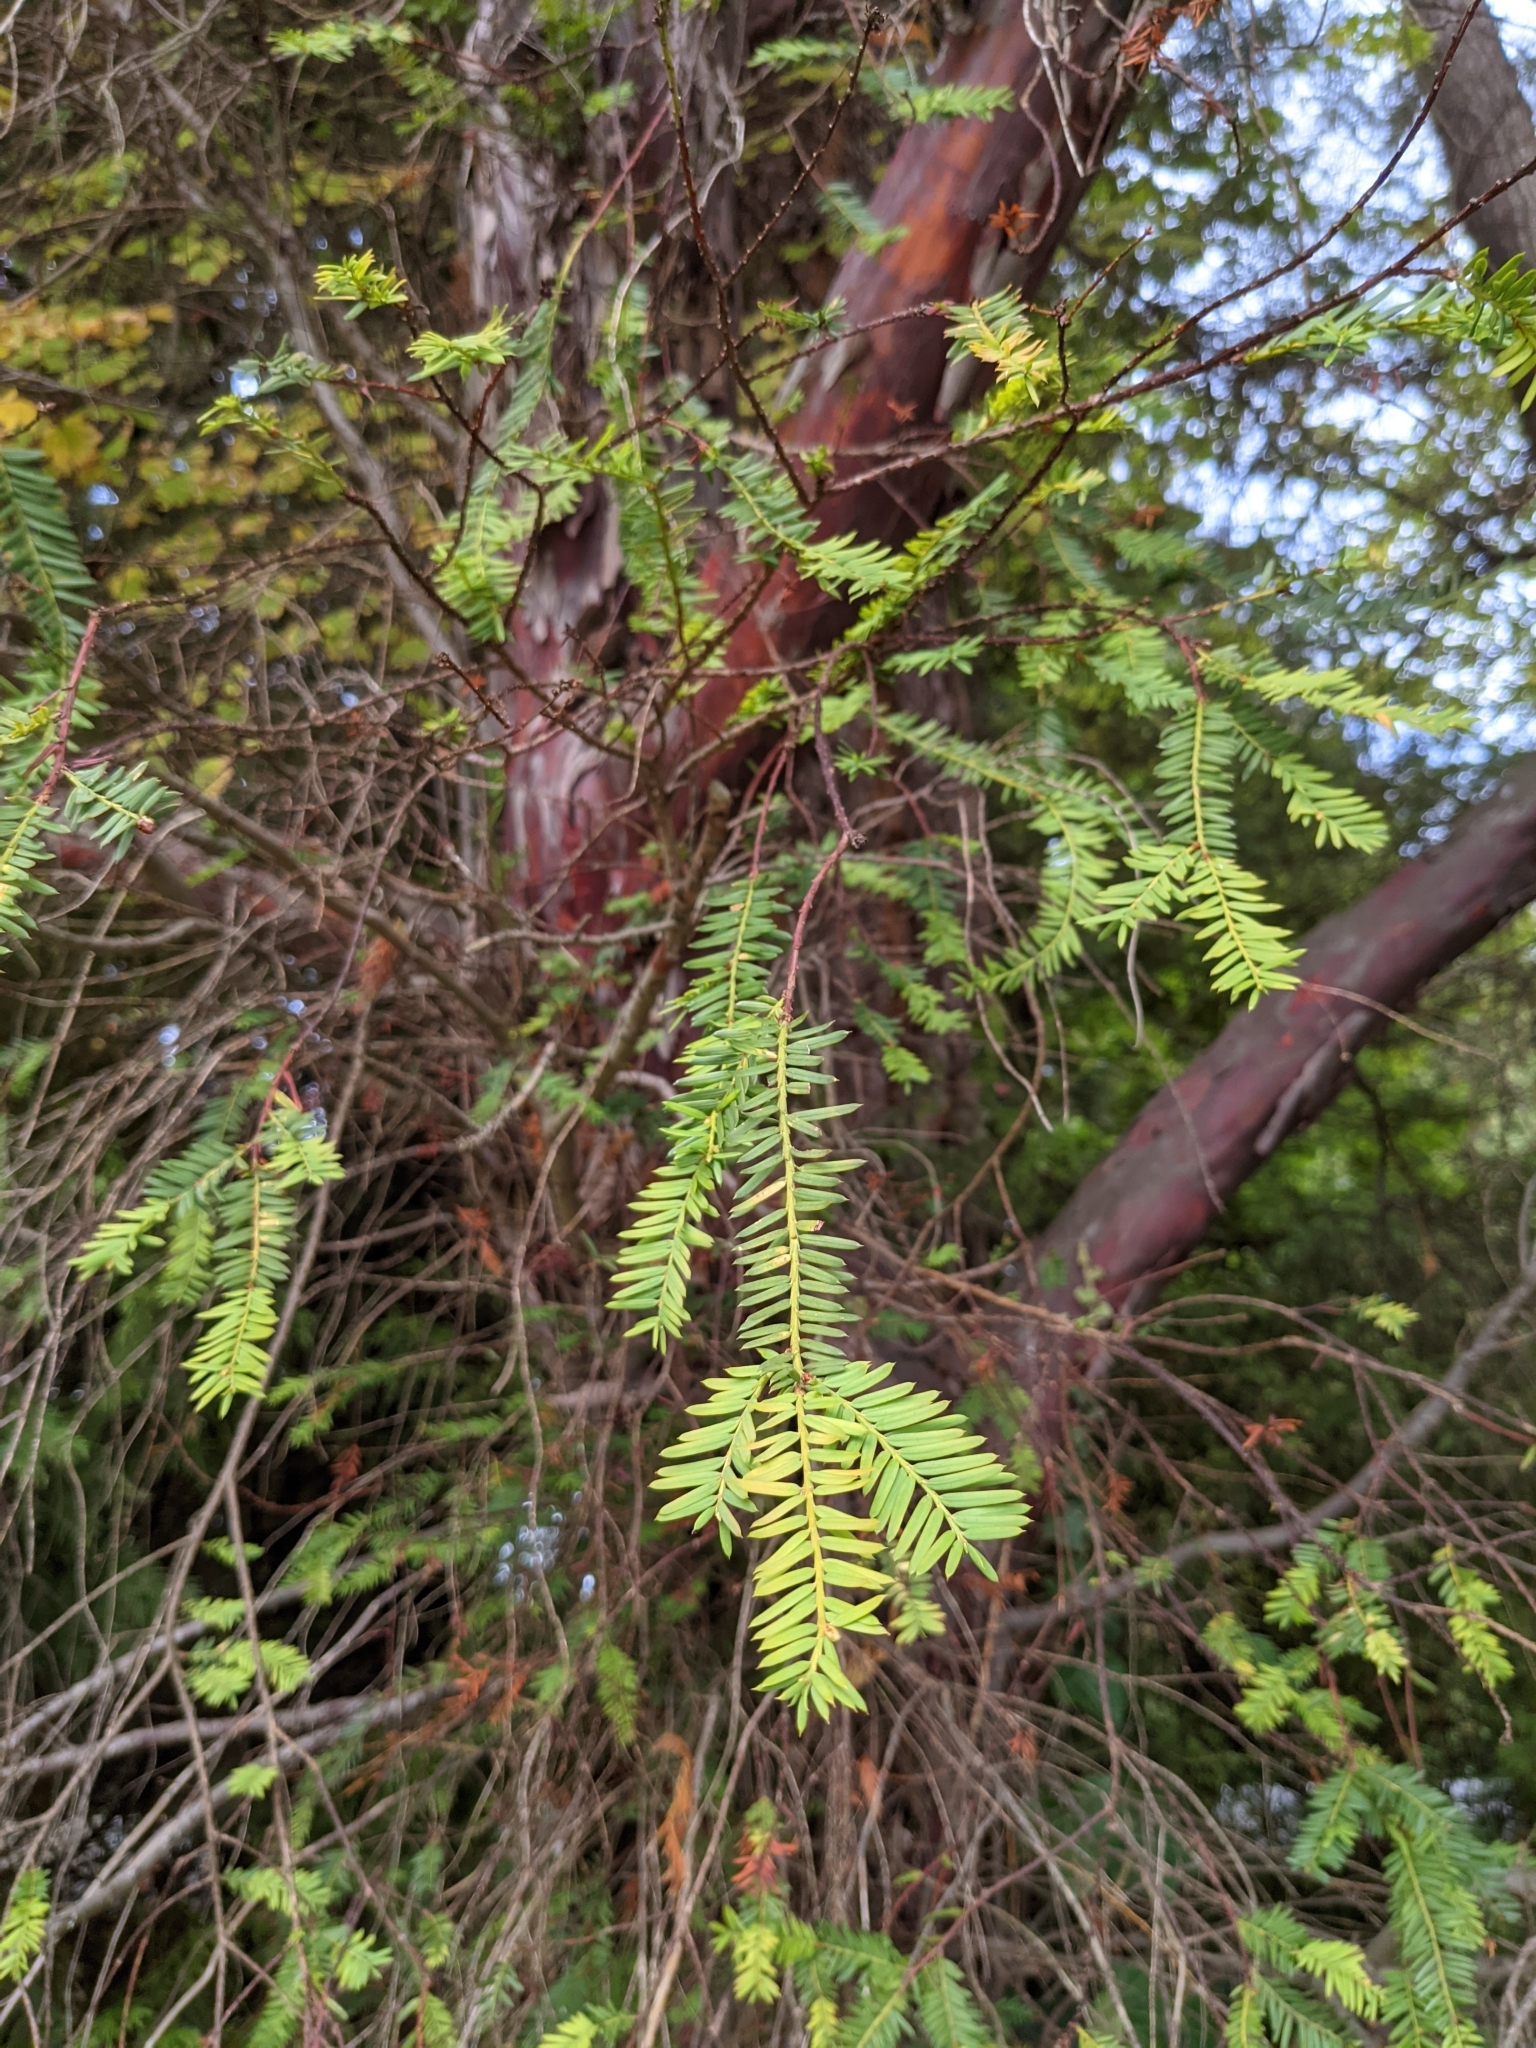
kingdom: Plantae
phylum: Tracheophyta
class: Pinopsida
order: Pinales
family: Taxaceae
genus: Taxus
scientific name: Taxus brevifolia
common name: Pacific yew
